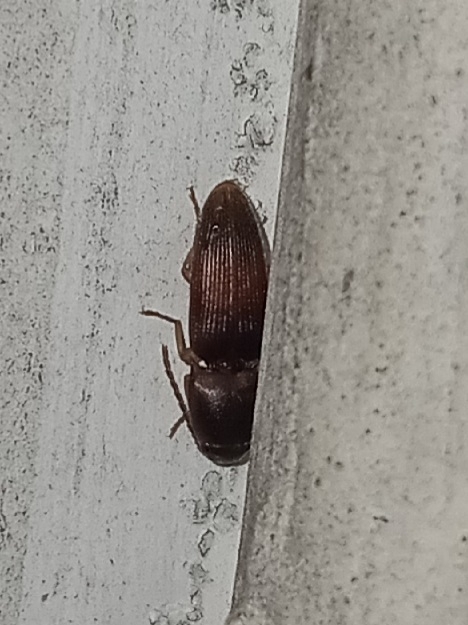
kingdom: Animalia
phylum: Arthropoda
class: Insecta
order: Coleoptera
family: Elateridae
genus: Monocrepidius
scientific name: Monocrepidius
